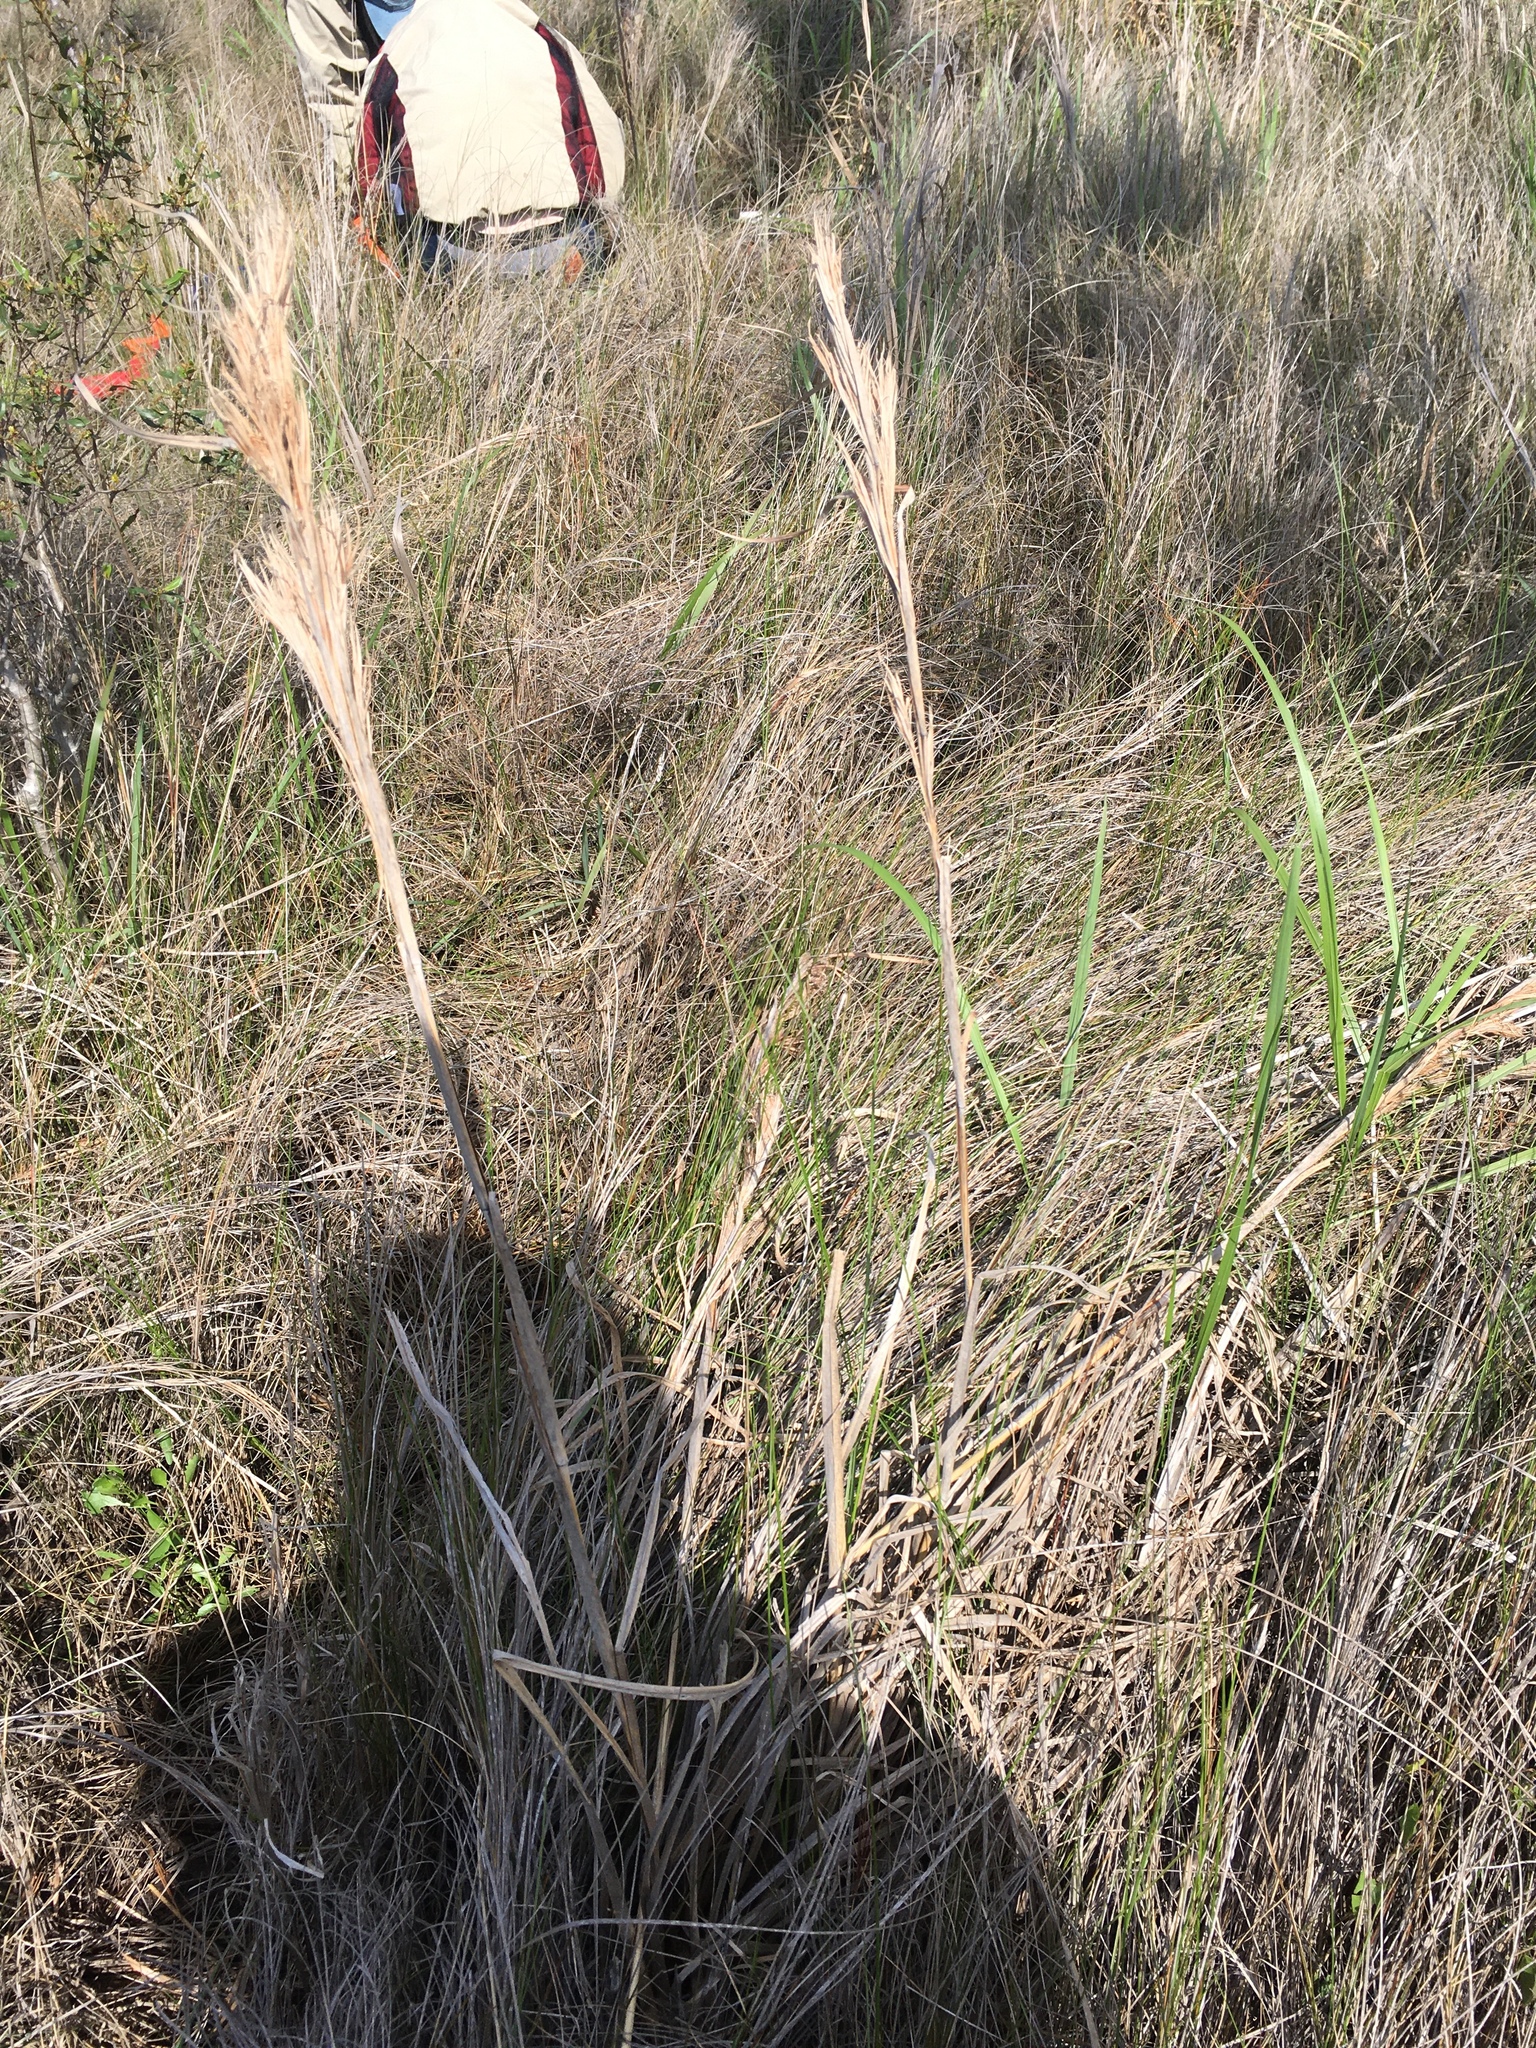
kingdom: Plantae
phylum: Tracheophyta
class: Liliopsida
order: Poales
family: Poaceae
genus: Andropogon
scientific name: Andropogon tenuispatheus
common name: Bushy bluestem
